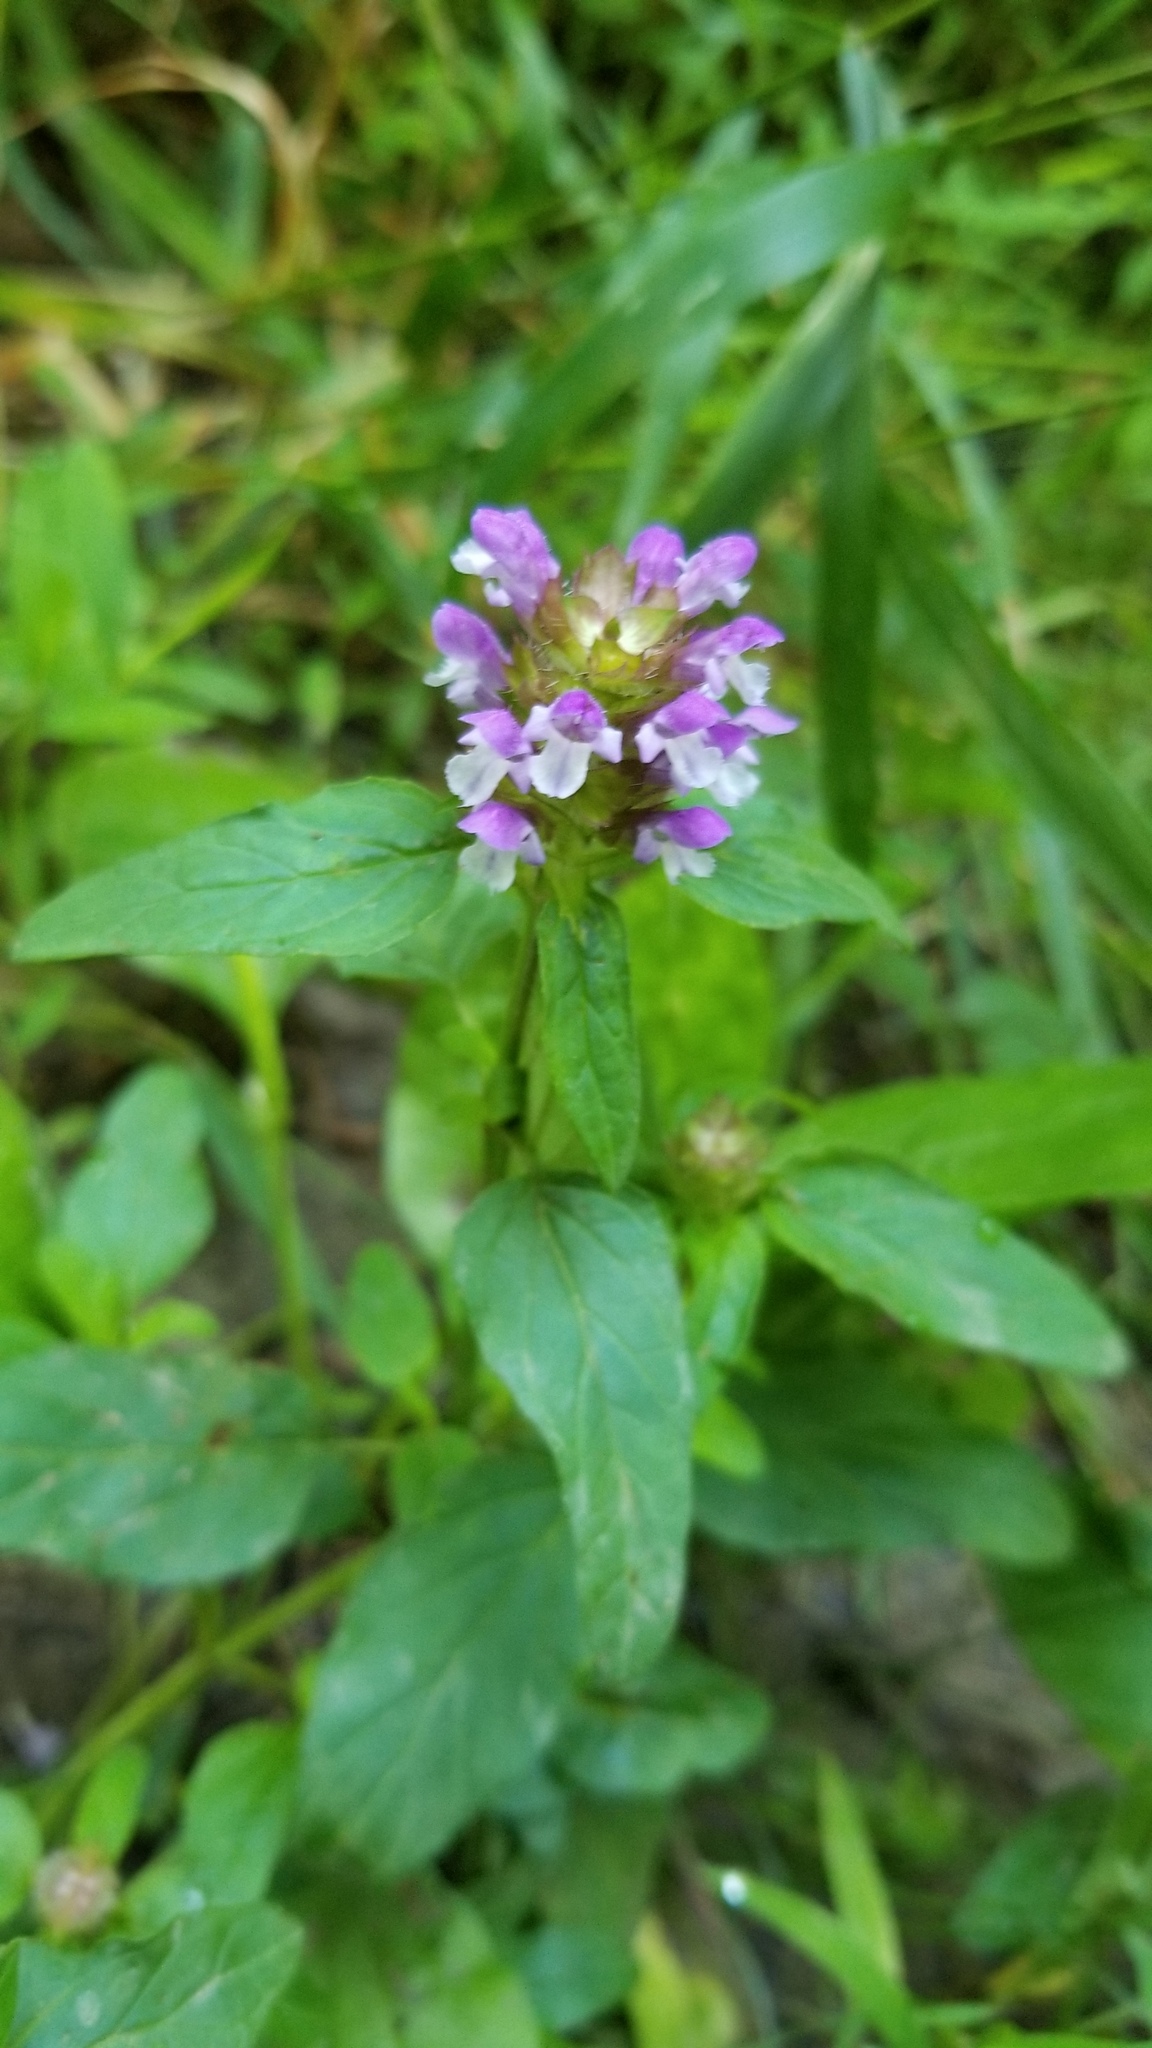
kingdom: Plantae
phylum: Tracheophyta
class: Magnoliopsida
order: Lamiales
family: Lamiaceae
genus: Prunella
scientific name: Prunella vulgaris
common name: Heal-all
